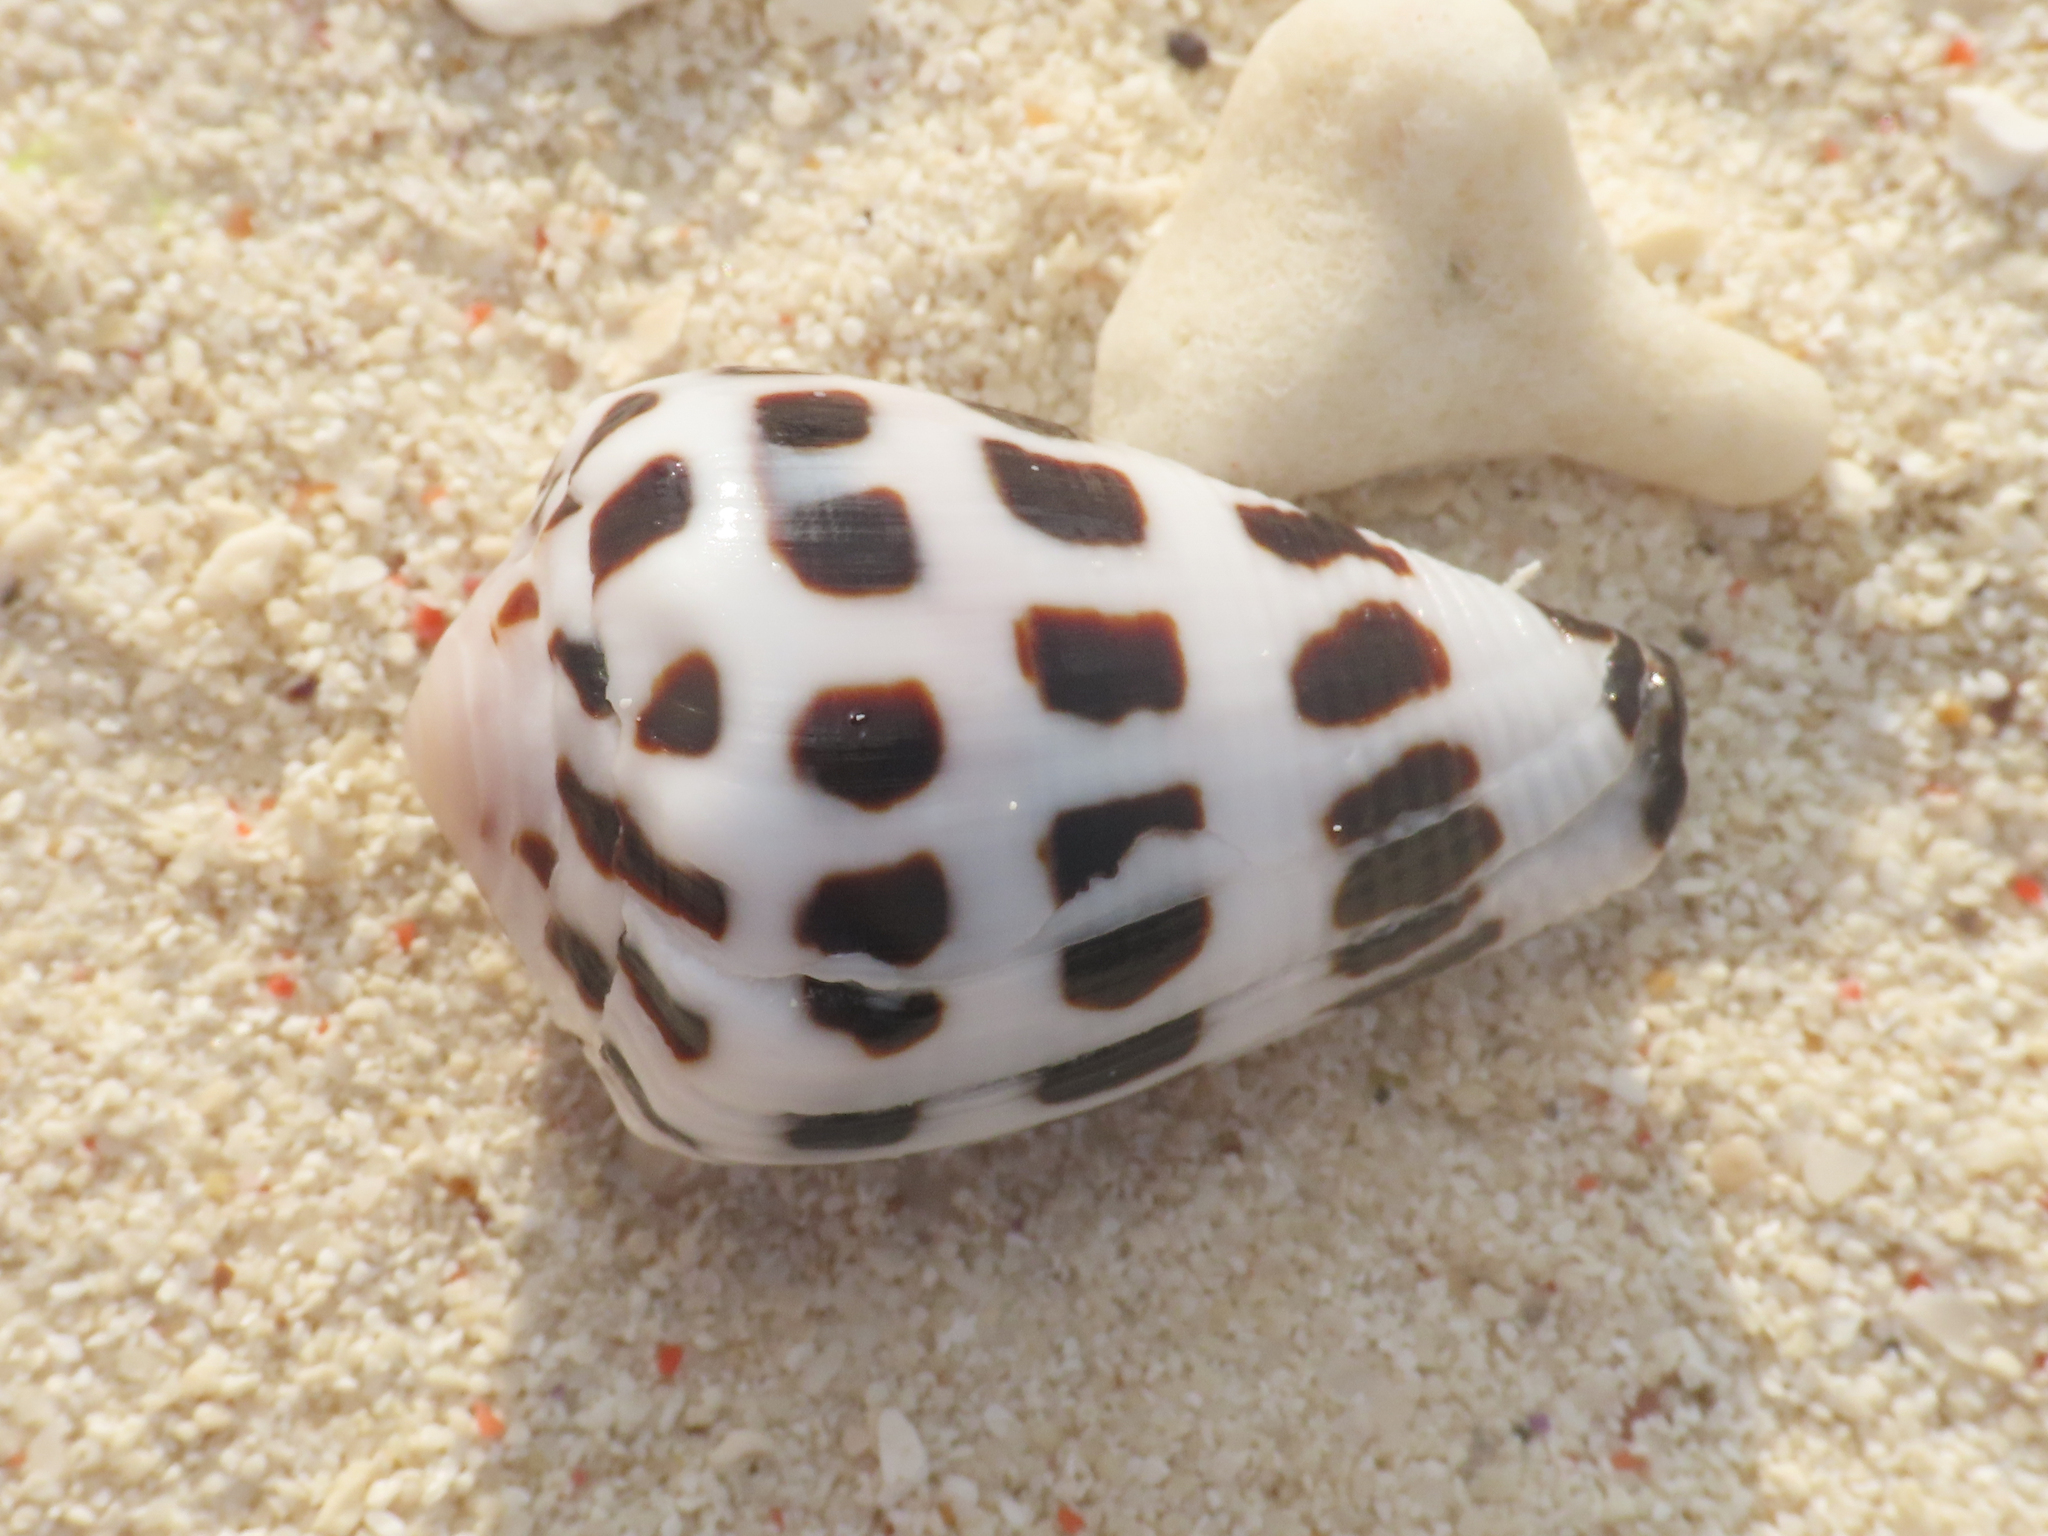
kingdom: Animalia
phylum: Mollusca
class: Gastropoda
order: Neogastropoda
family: Conidae
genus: Conus
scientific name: Conus ebraeus
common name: Hebrew cone
